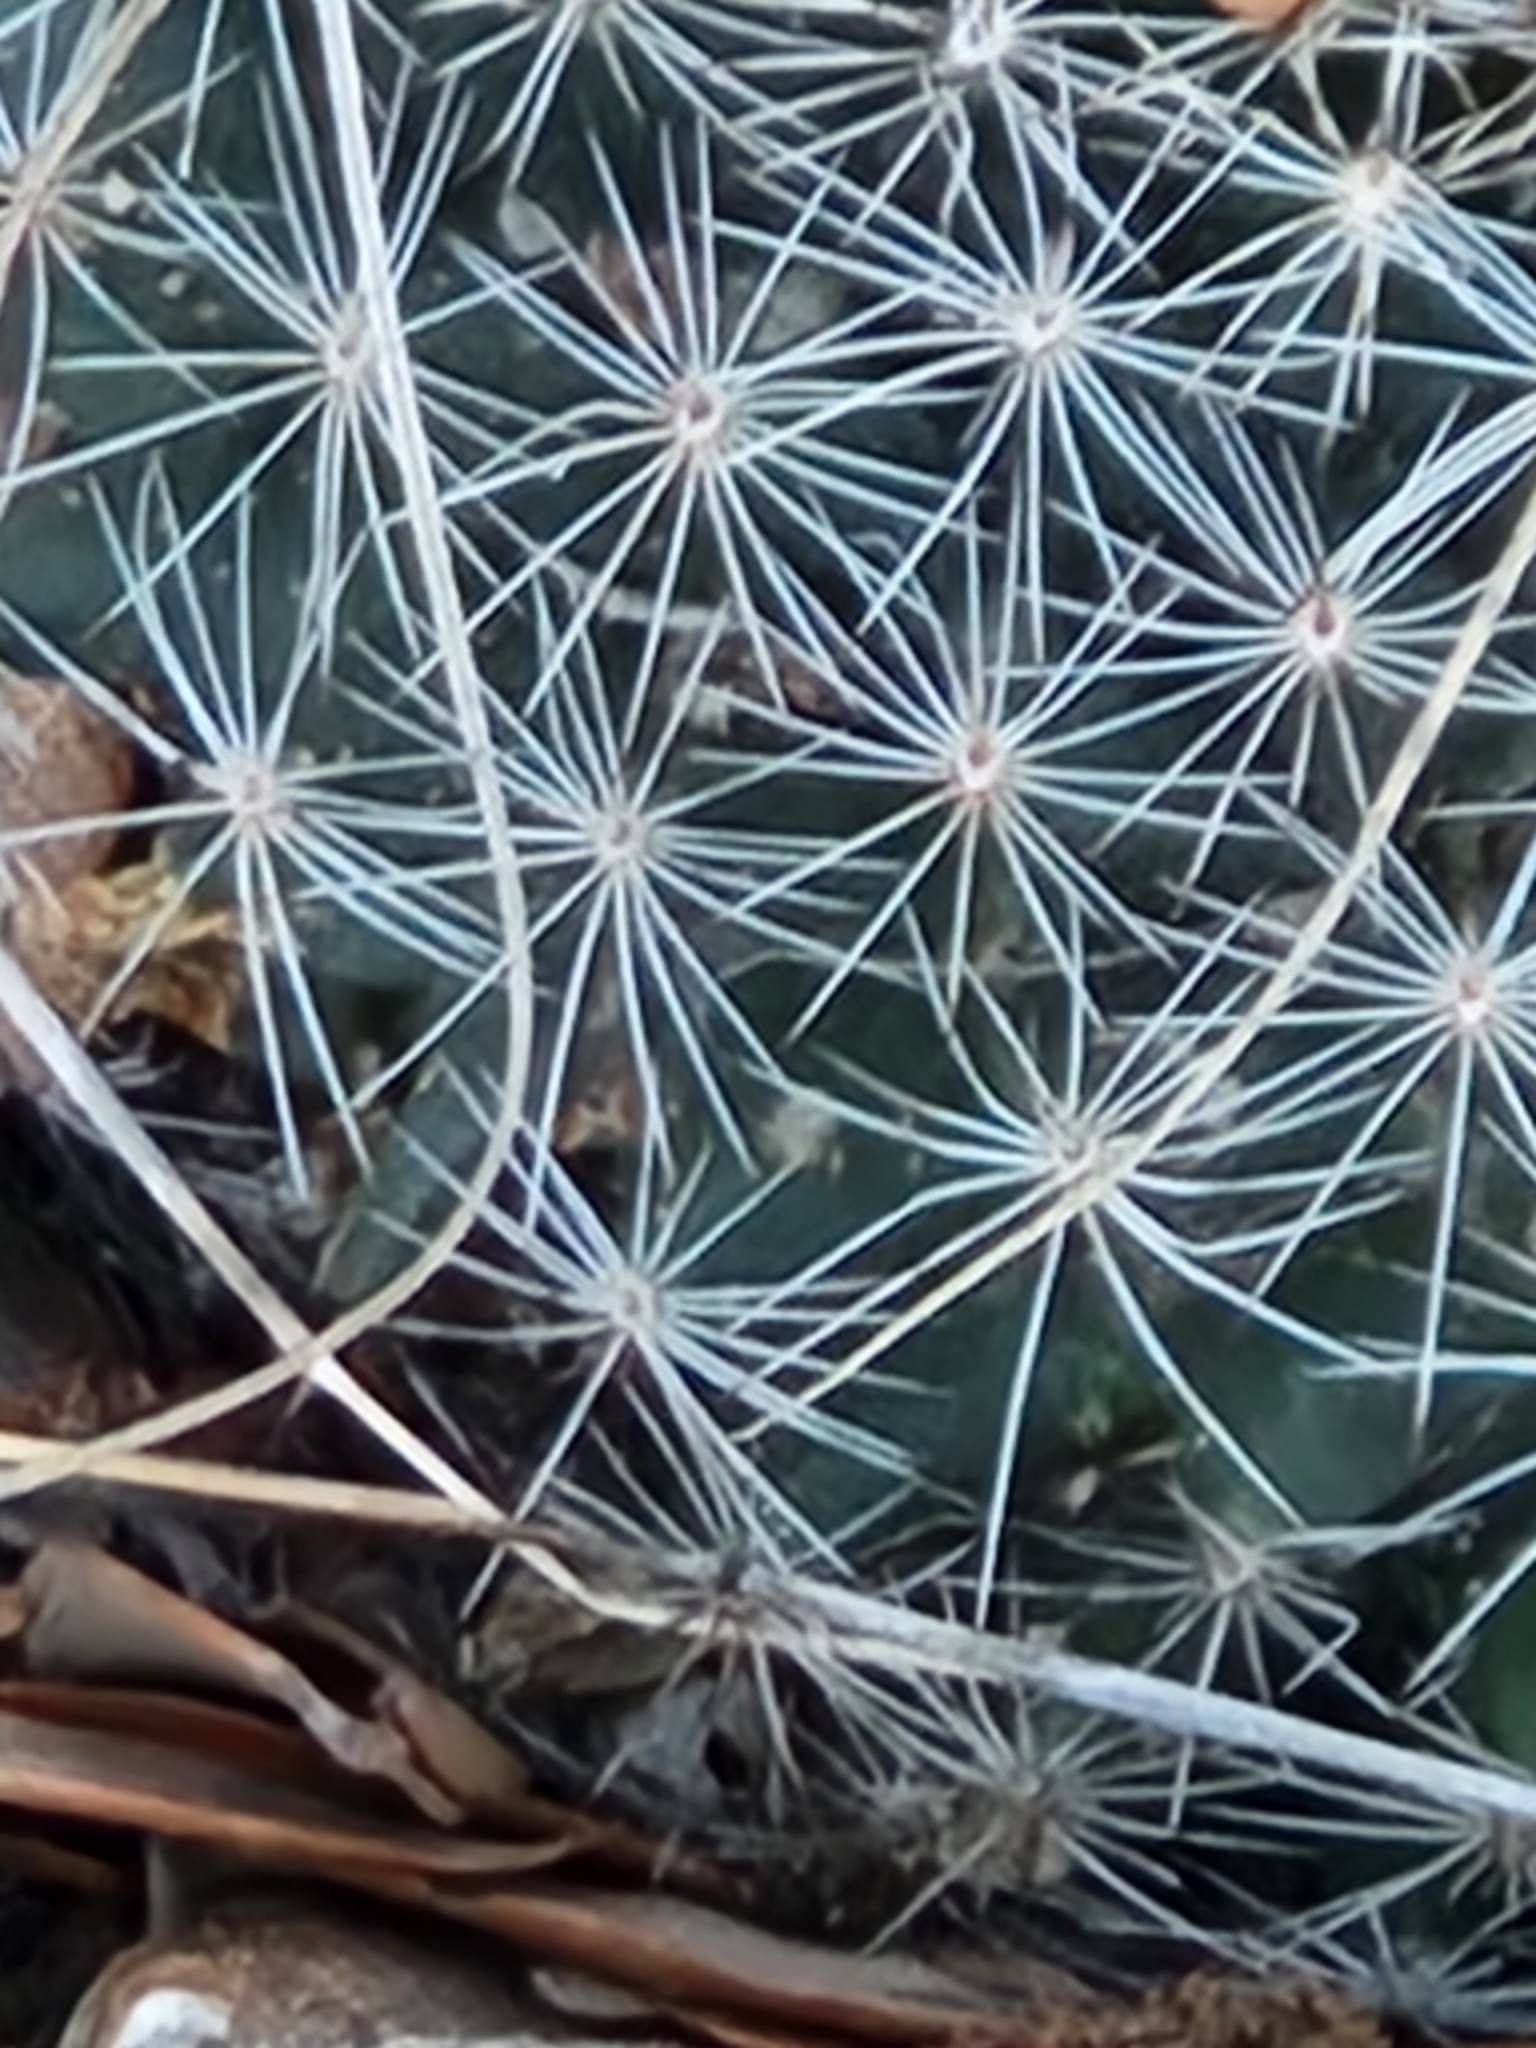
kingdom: Plantae
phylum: Tracheophyta
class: Magnoliopsida
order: Caryophyllales
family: Cactaceae
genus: Mammillaria
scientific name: Mammillaria heyderi
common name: Little nipple cactus
